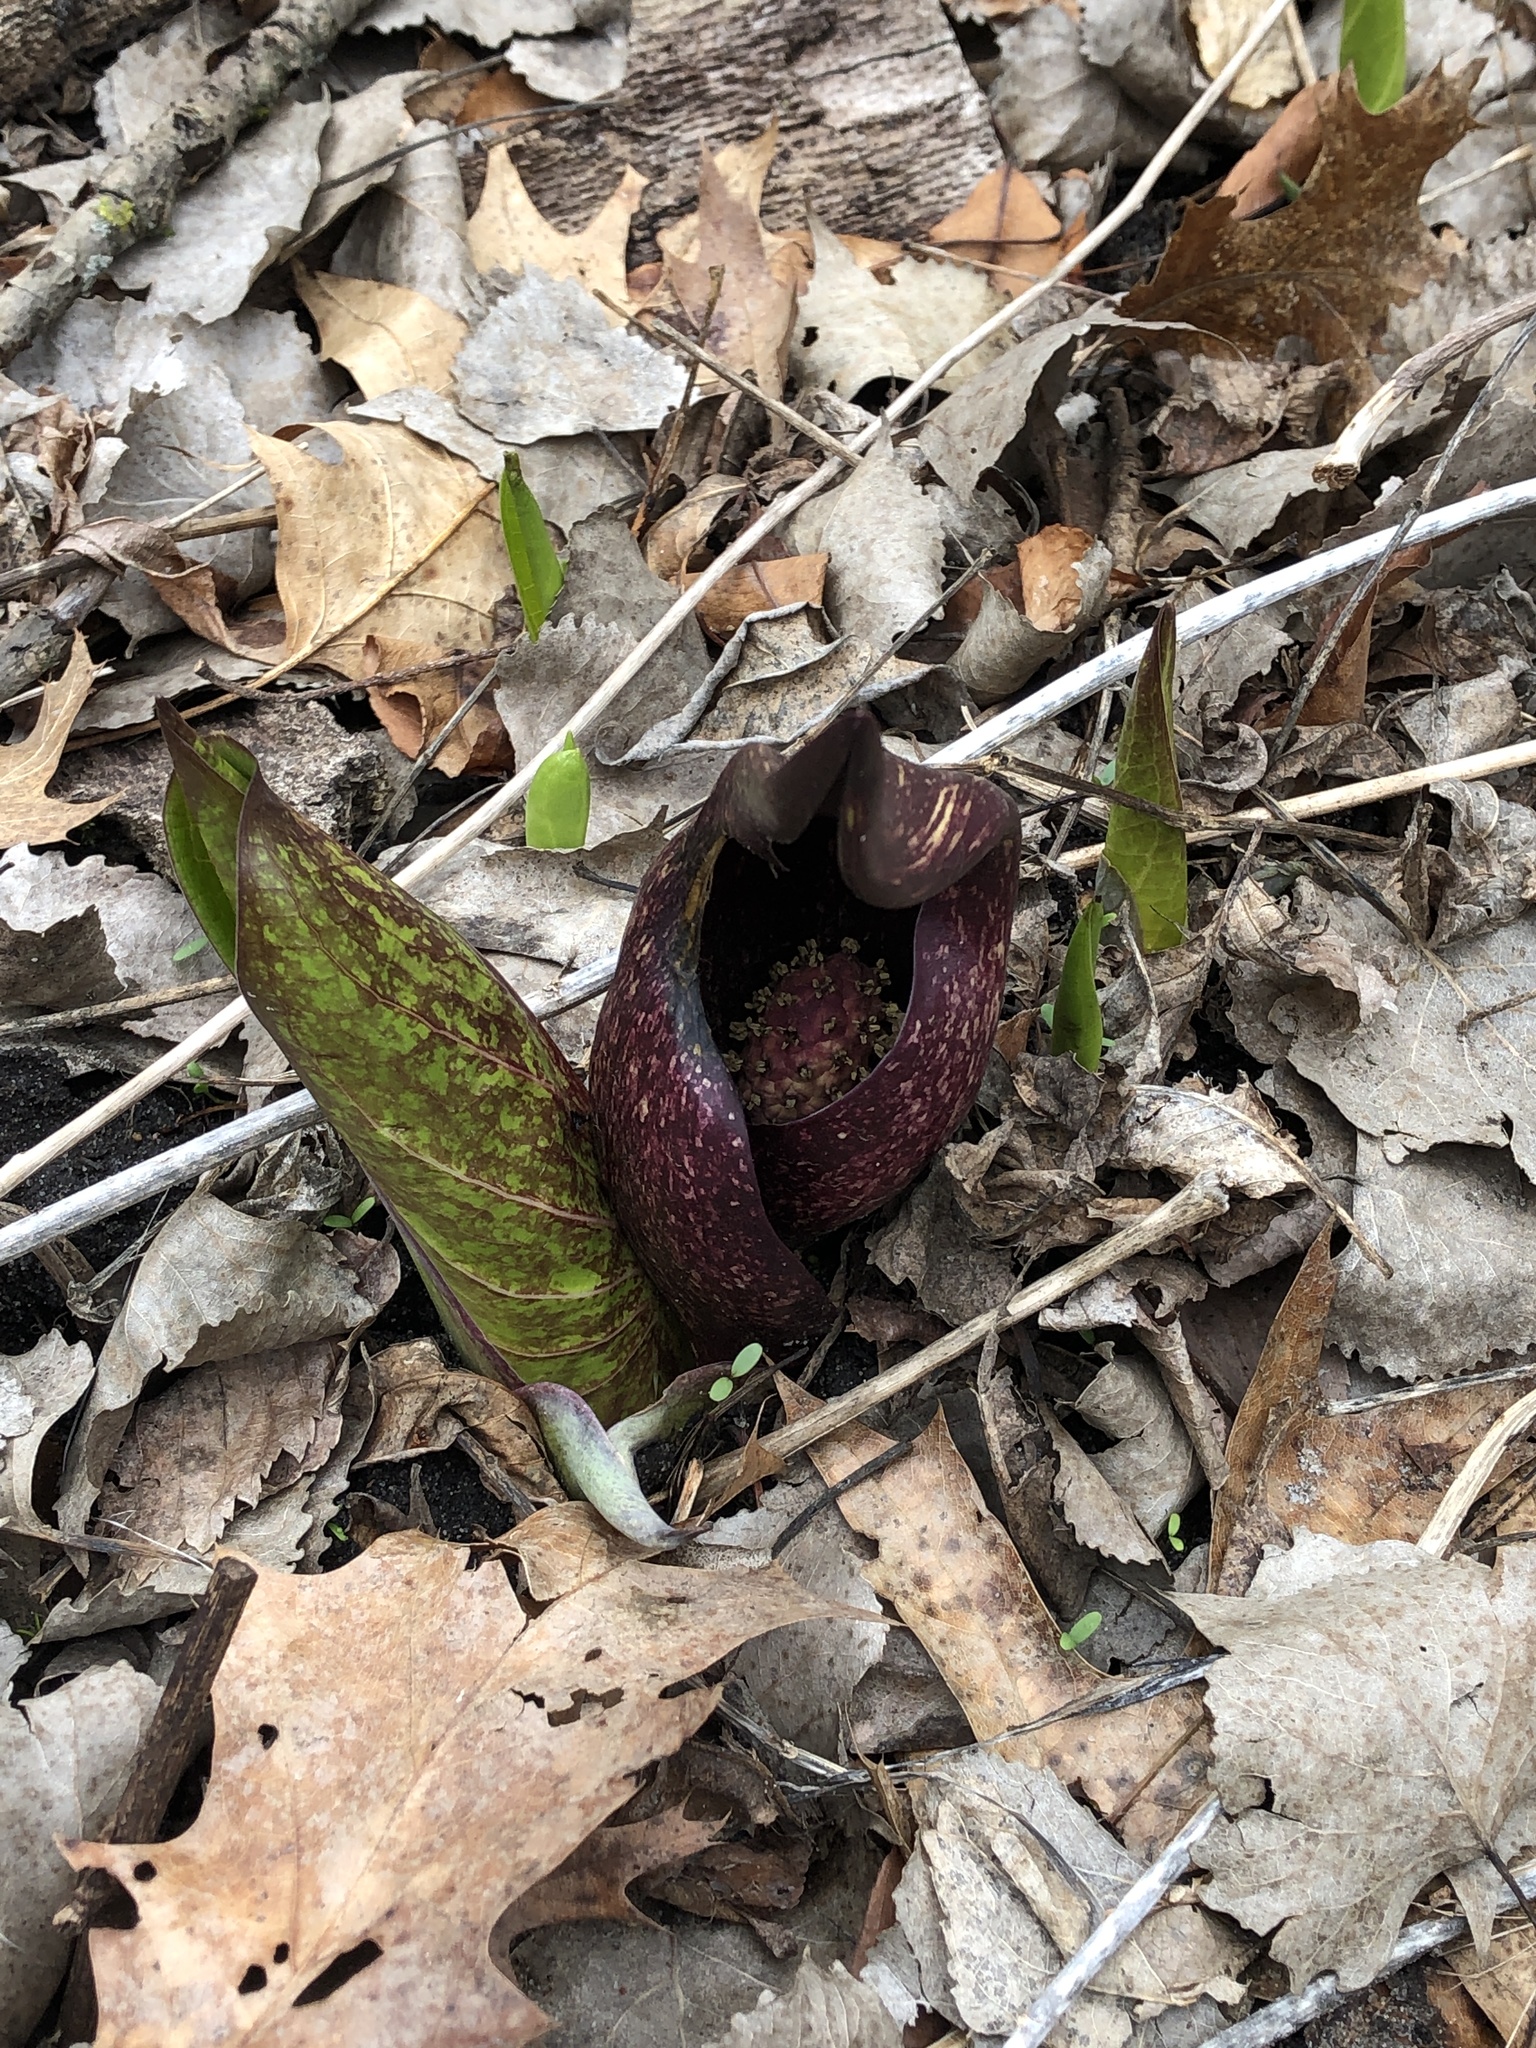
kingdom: Plantae
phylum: Tracheophyta
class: Liliopsida
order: Alismatales
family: Araceae
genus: Symplocarpus
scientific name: Symplocarpus foetidus
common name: Eastern skunk cabbage
